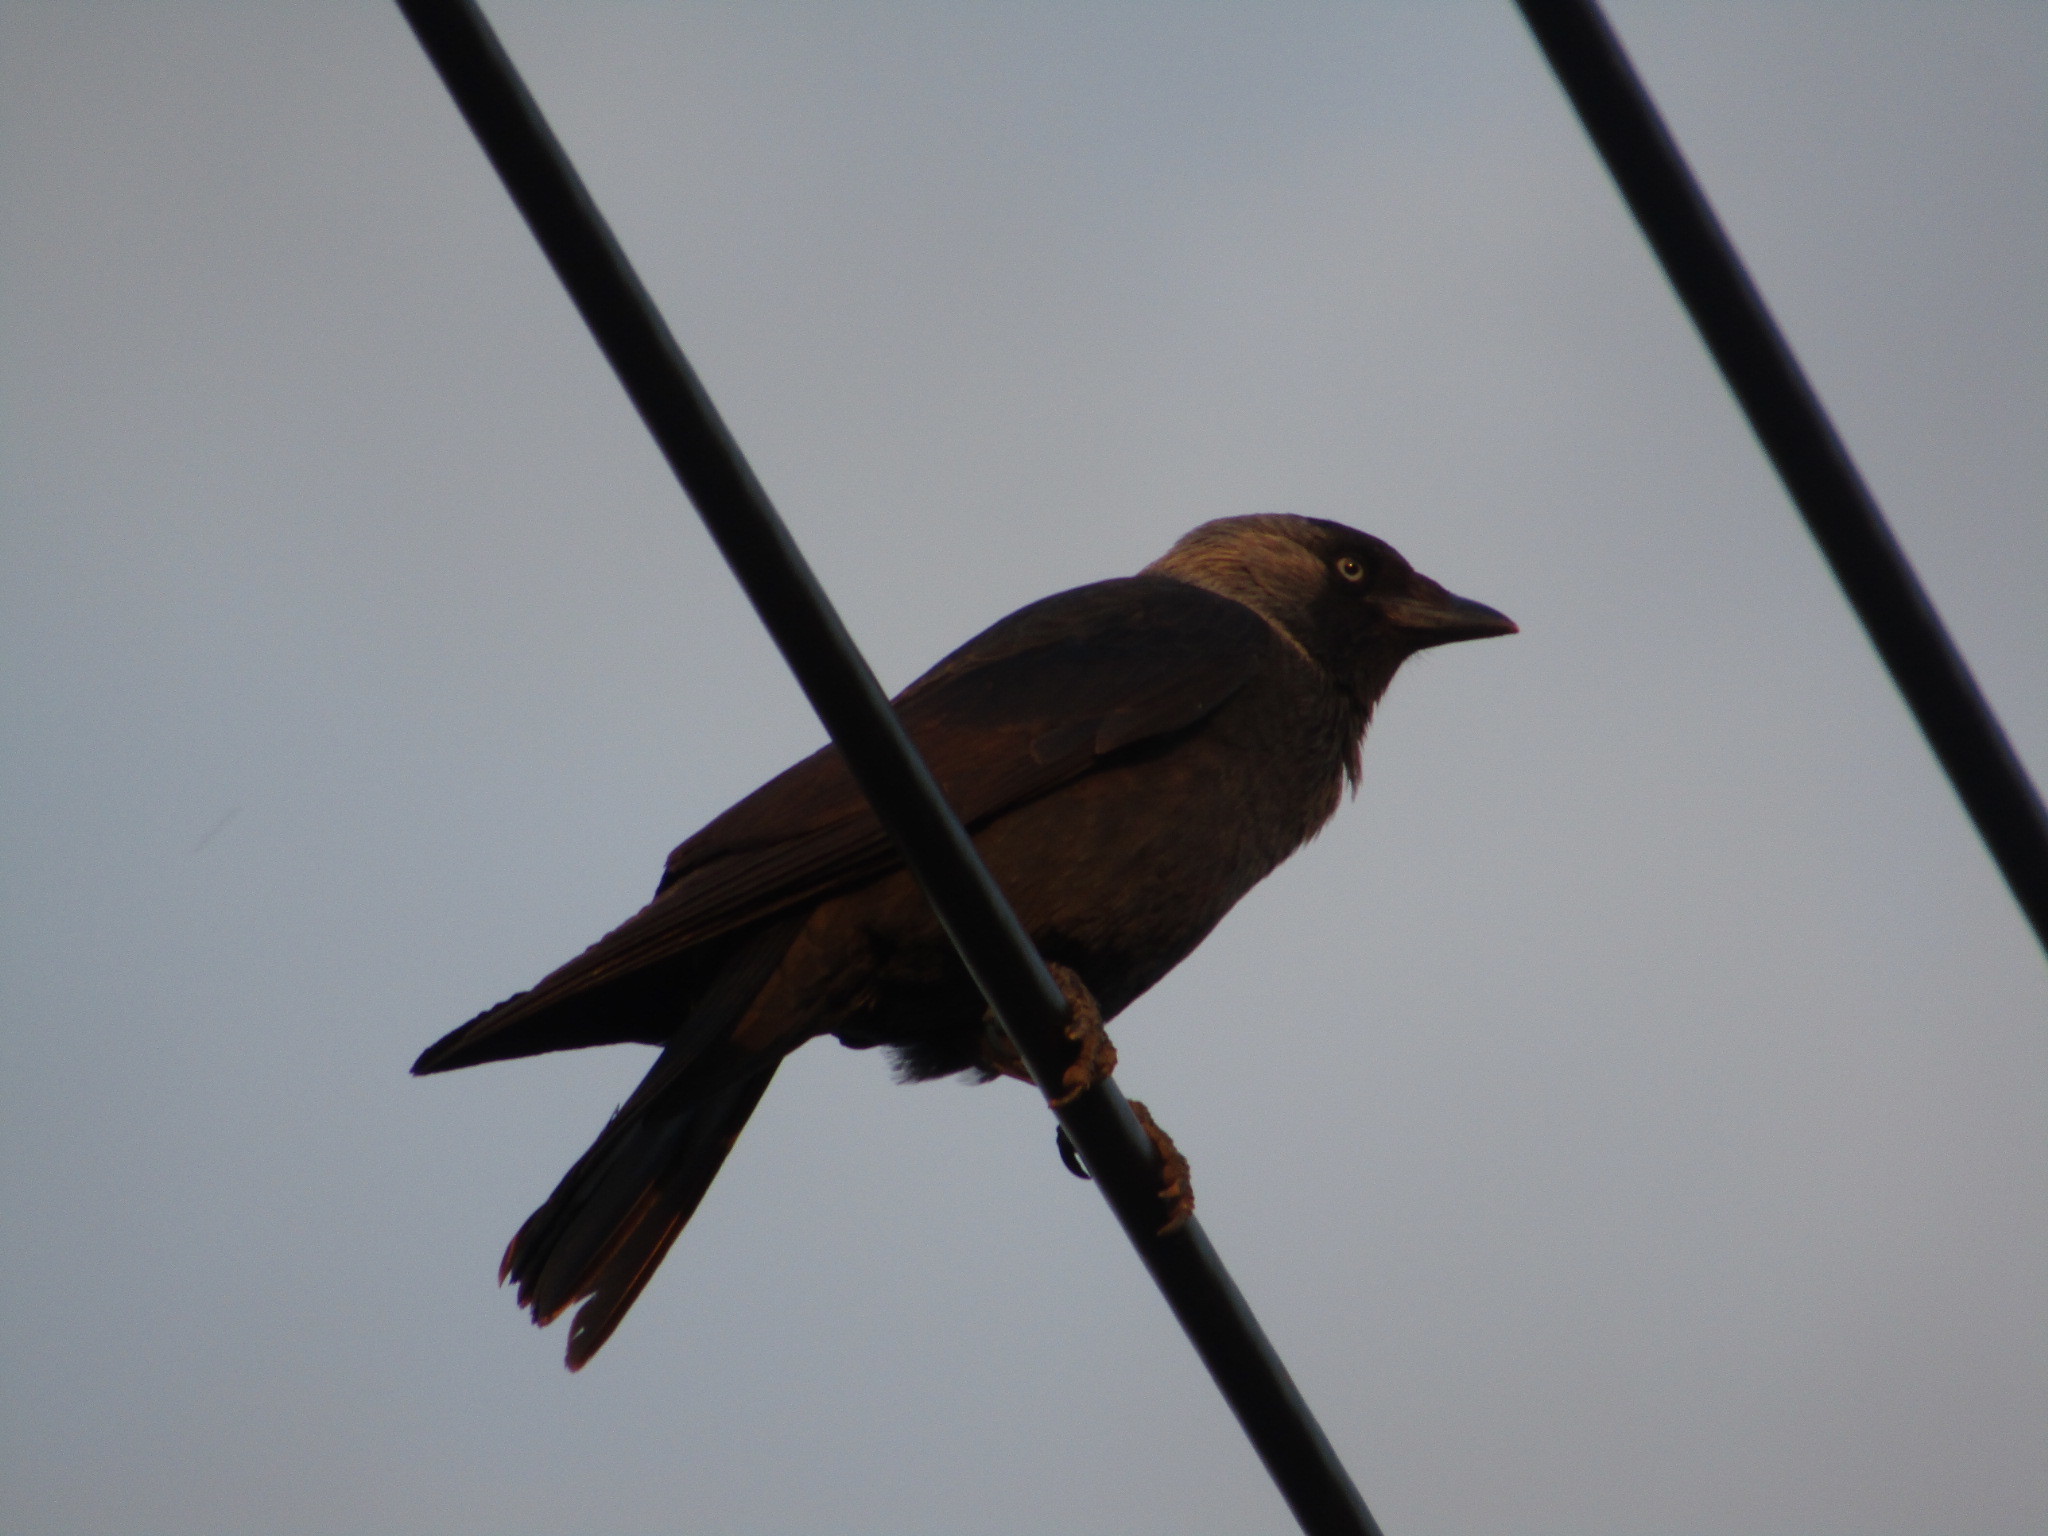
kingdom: Animalia
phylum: Chordata
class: Aves
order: Passeriformes
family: Corvidae
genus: Coloeus
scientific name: Coloeus monedula
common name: Western jackdaw
